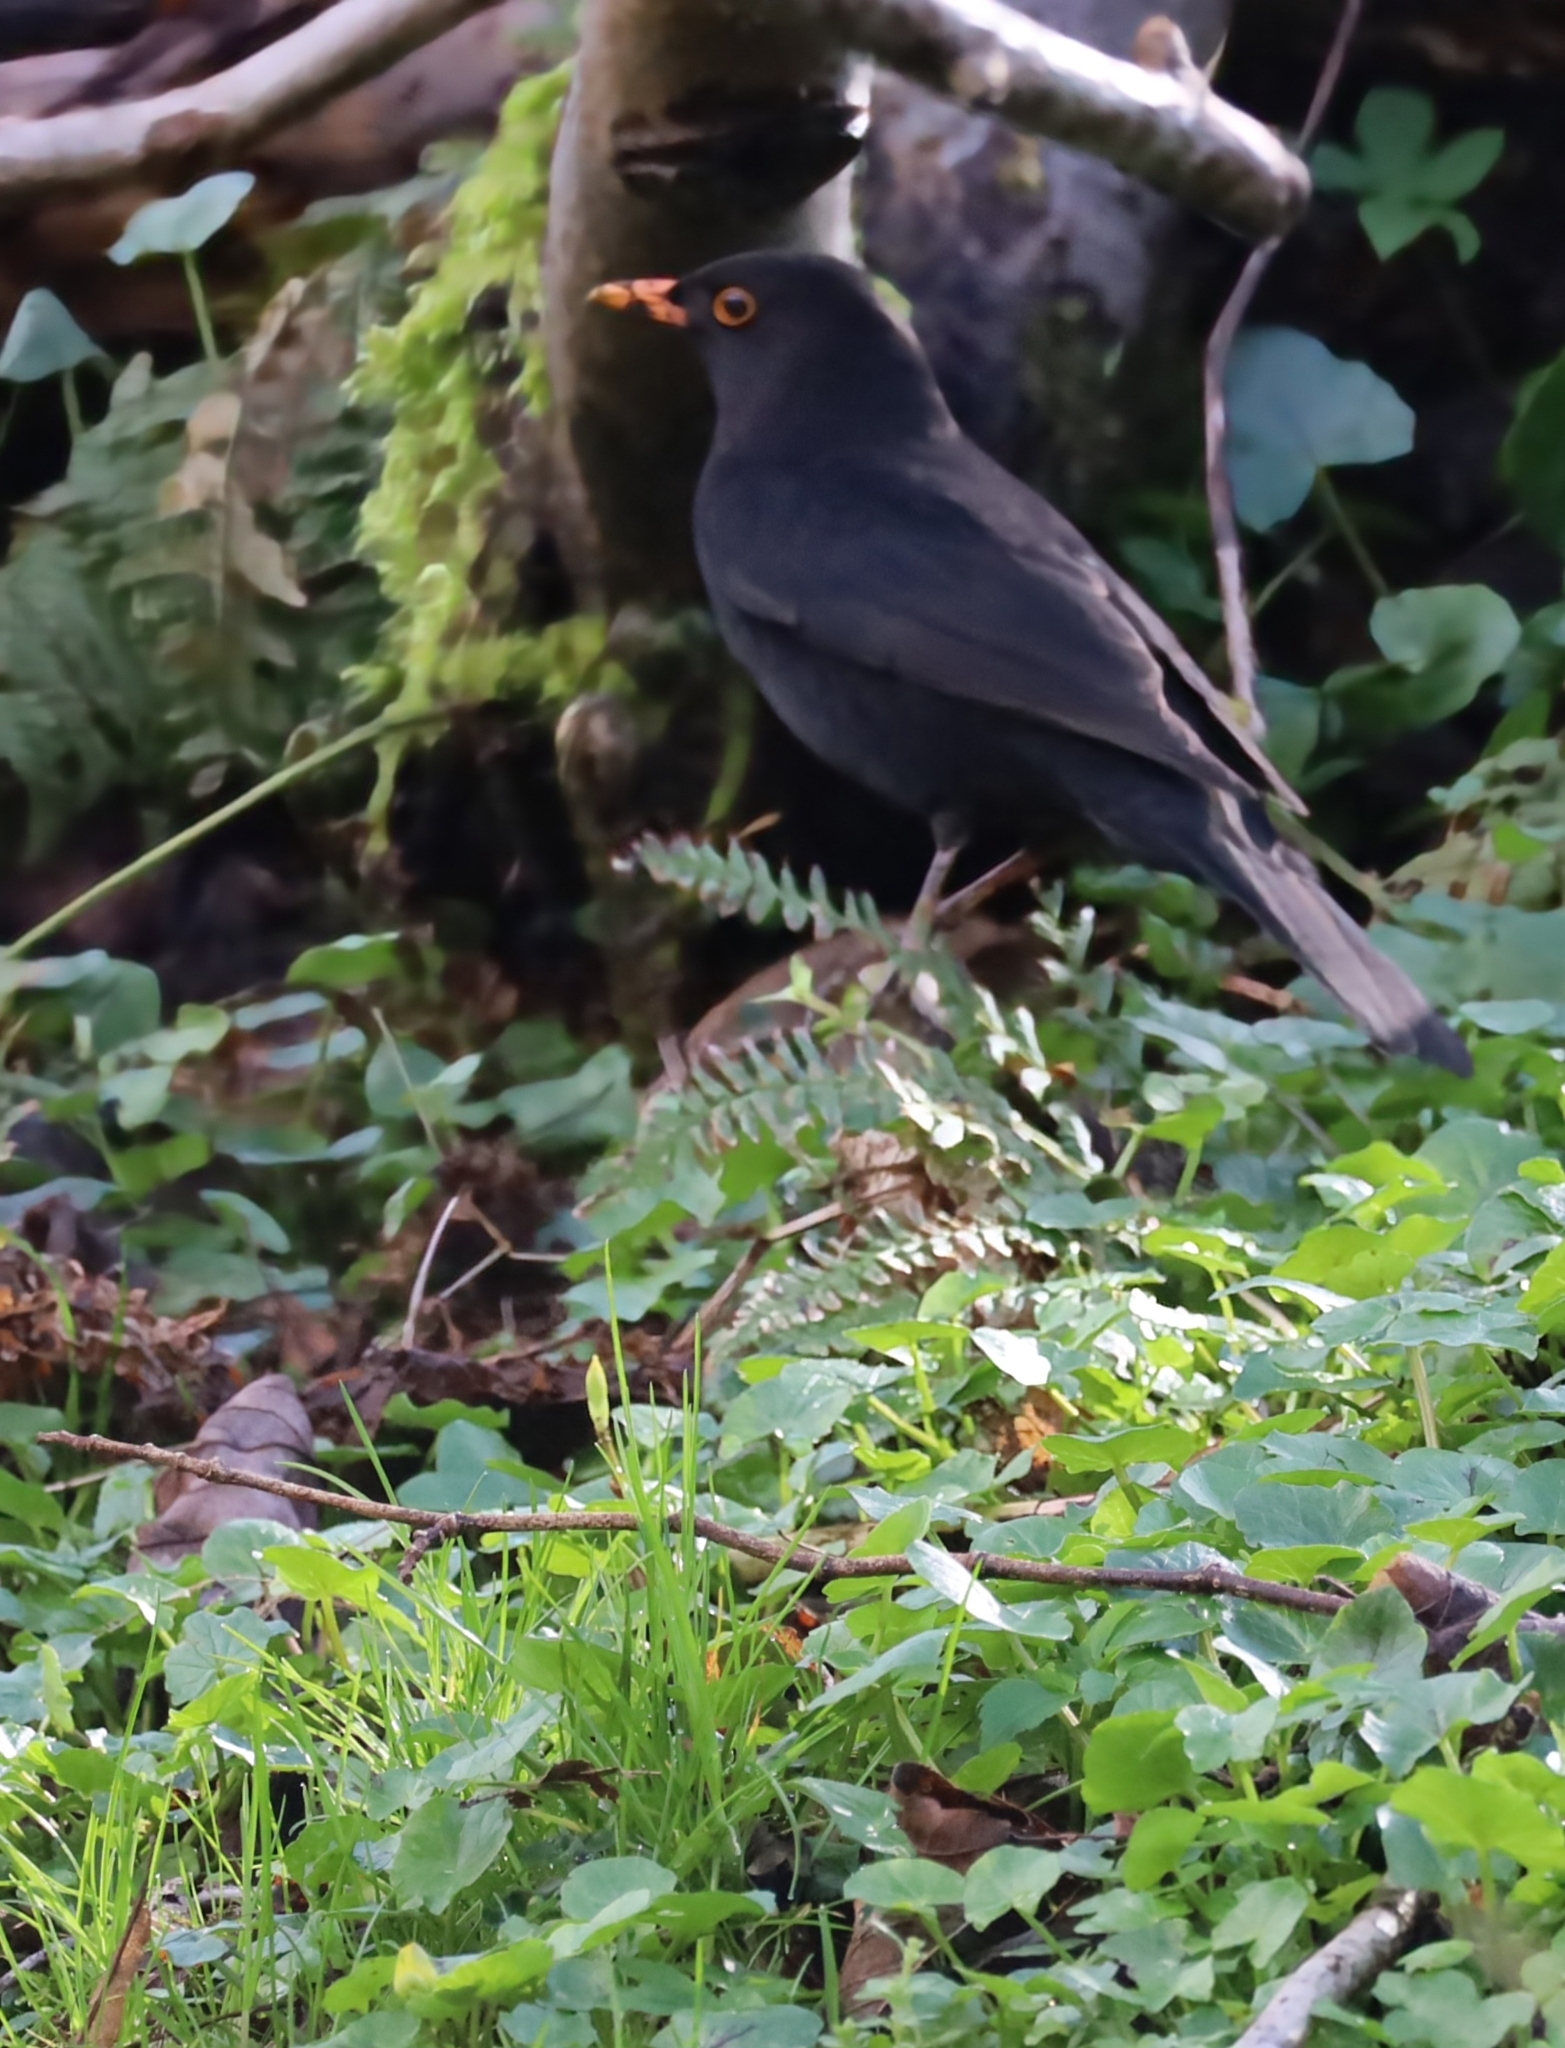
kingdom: Animalia
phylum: Chordata
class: Aves
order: Passeriformes
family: Turdidae
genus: Turdus
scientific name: Turdus merula
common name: Common blackbird
